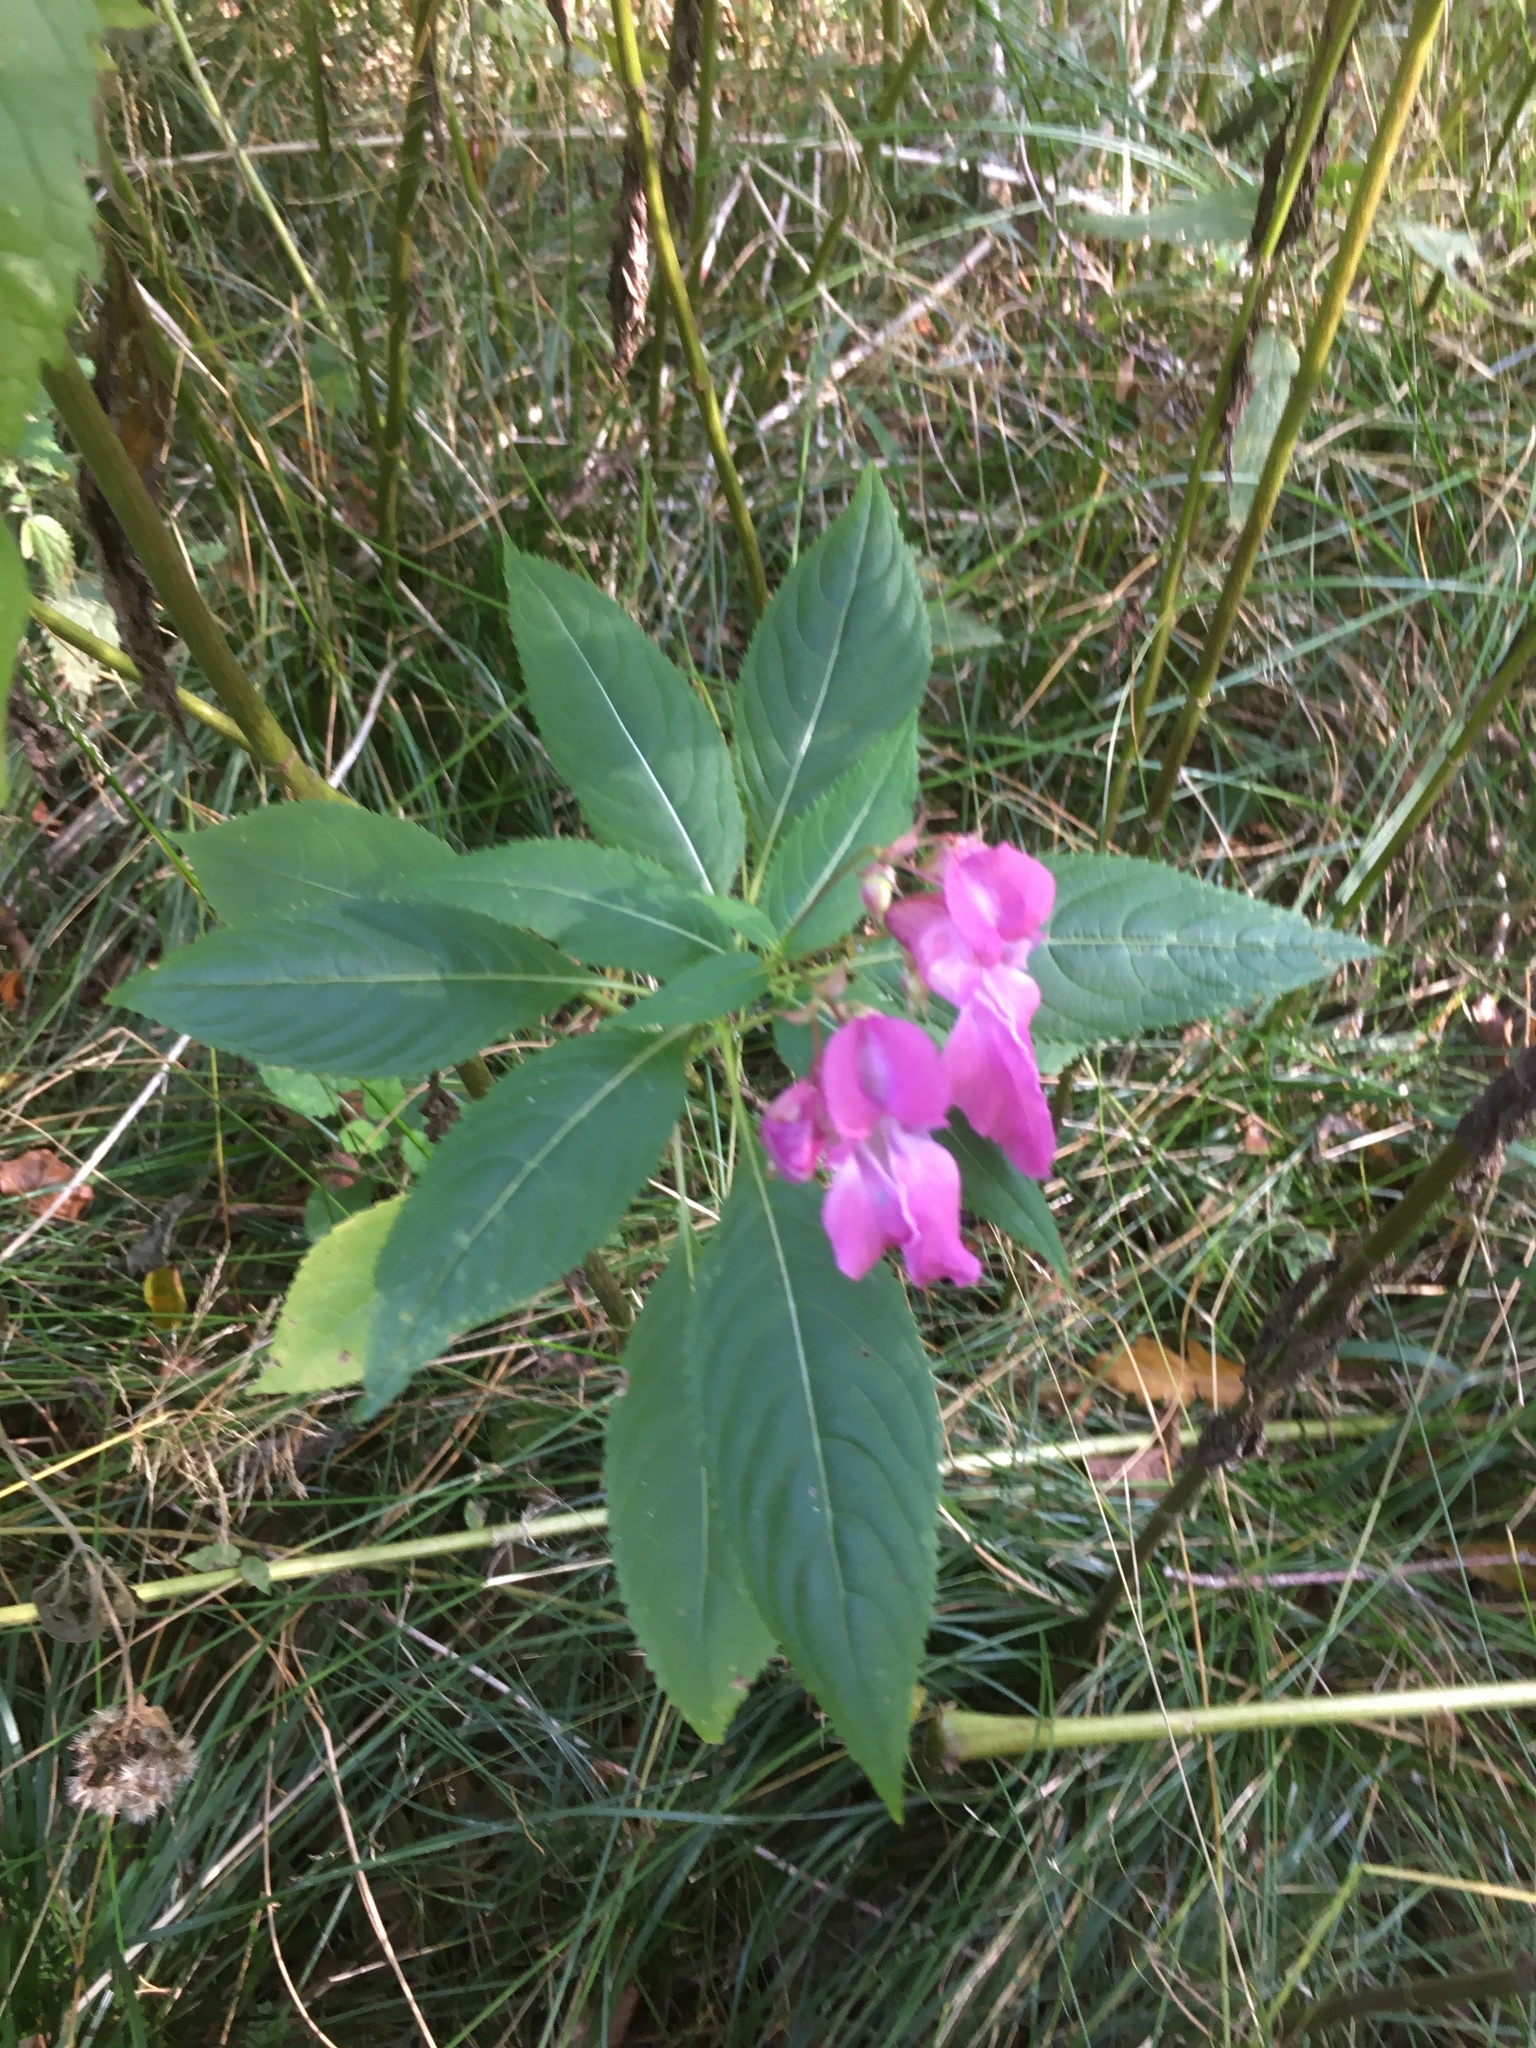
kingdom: Plantae
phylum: Tracheophyta
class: Magnoliopsida
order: Ericales
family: Balsaminaceae
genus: Impatiens
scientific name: Impatiens glandulifera
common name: Himalayan balsam
